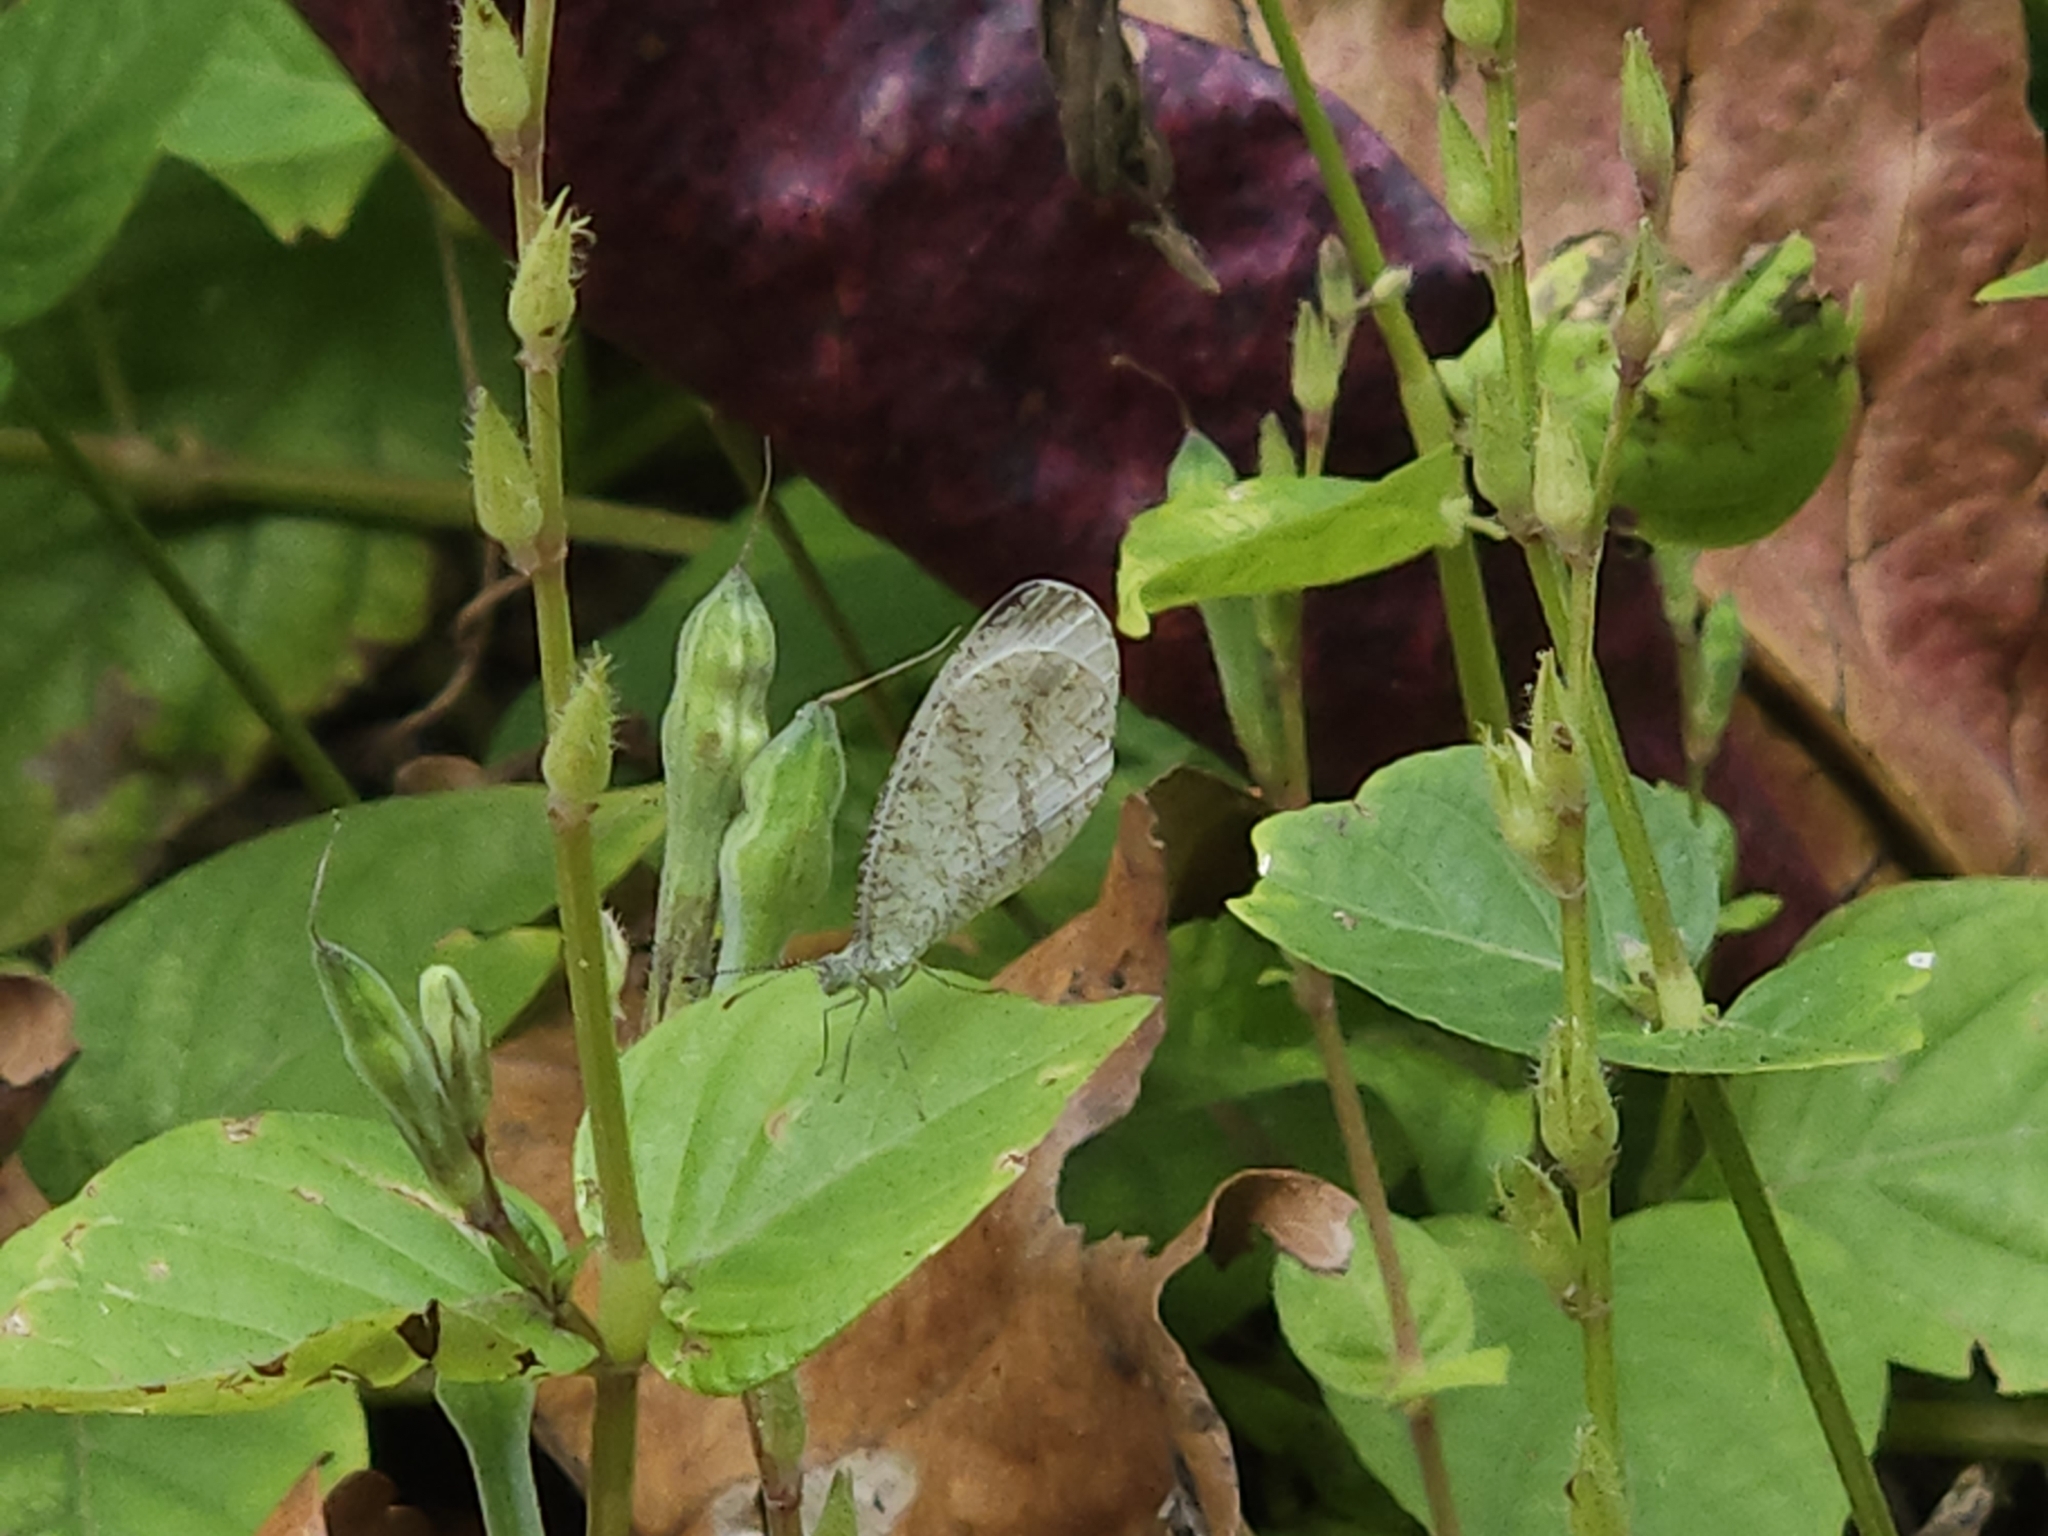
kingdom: Animalia
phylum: Arthropoda
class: Insecta
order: Lepidoptera
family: Pieridae
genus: Leptosia
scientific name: Leptosia nina
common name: Psyche
